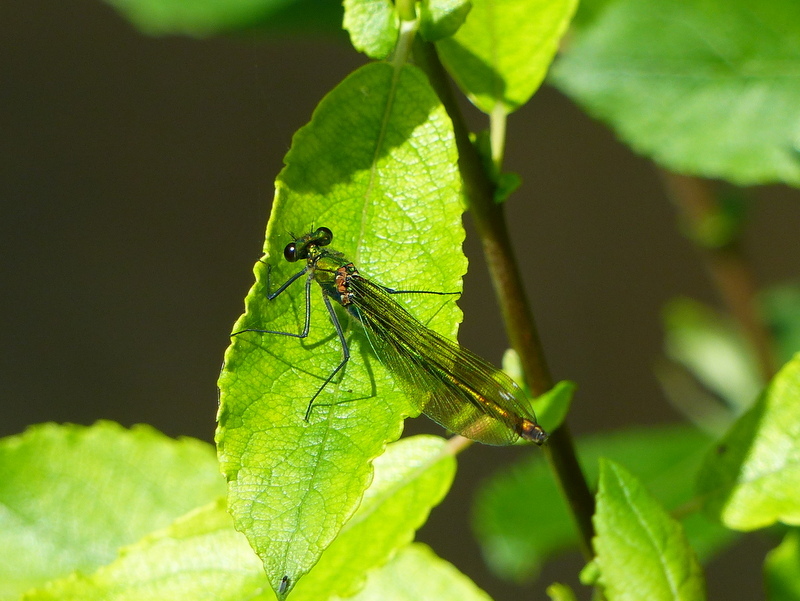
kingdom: Animalia
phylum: Arthropoda
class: Insecta
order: Odonata
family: Calopterygidae
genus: Calopteryx
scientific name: Calopteryx splendens
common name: Banded demoiselle
